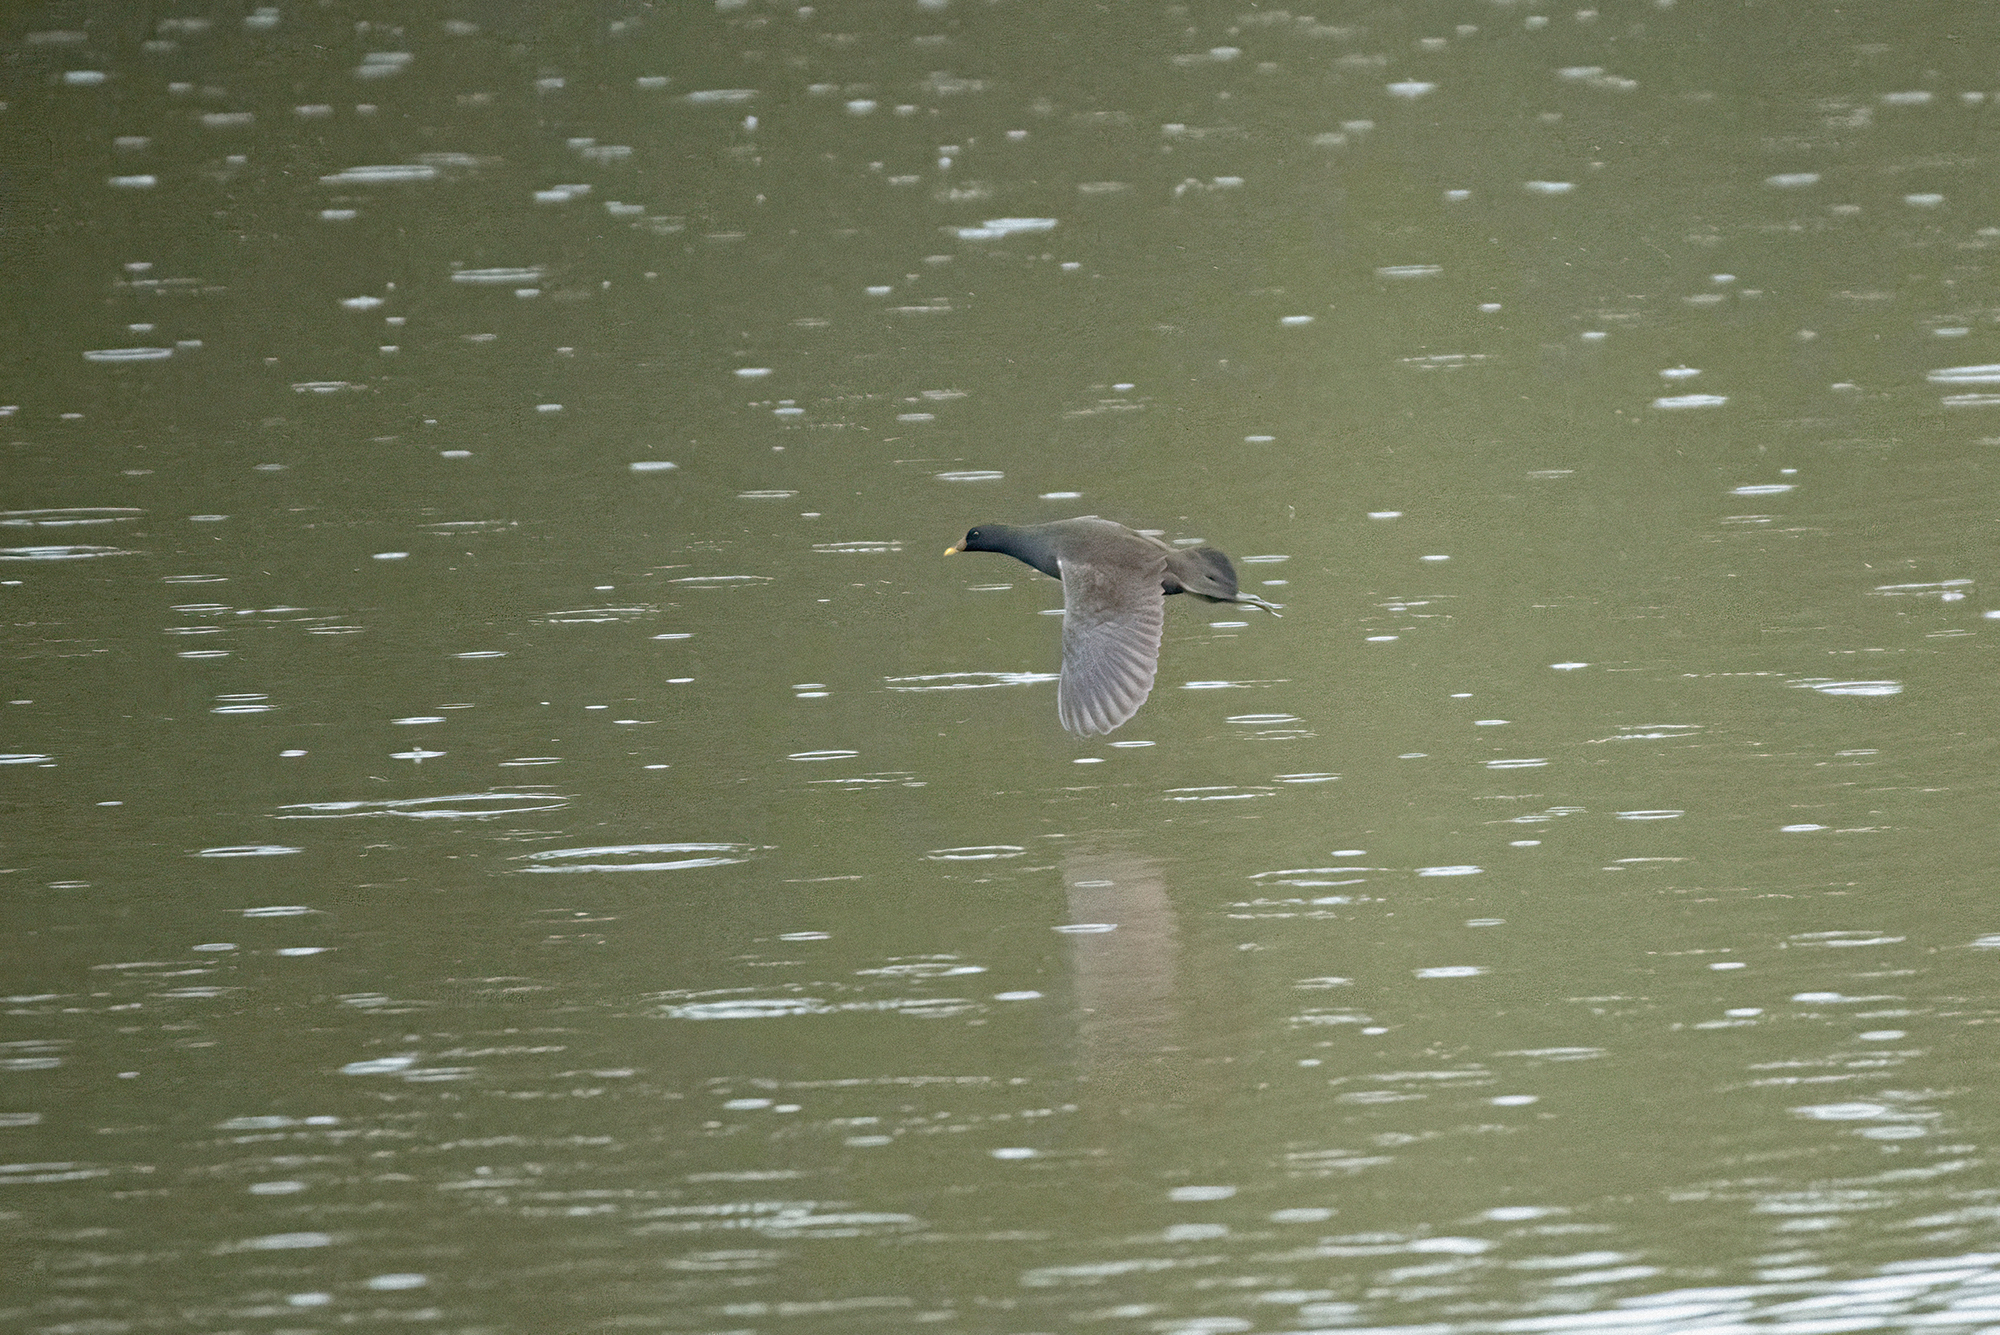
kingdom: Animalia
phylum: Chordata
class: Aves
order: Gruiformes
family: Rallidae
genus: Gallinula
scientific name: Gallinula chloropus
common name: Common moorhen
